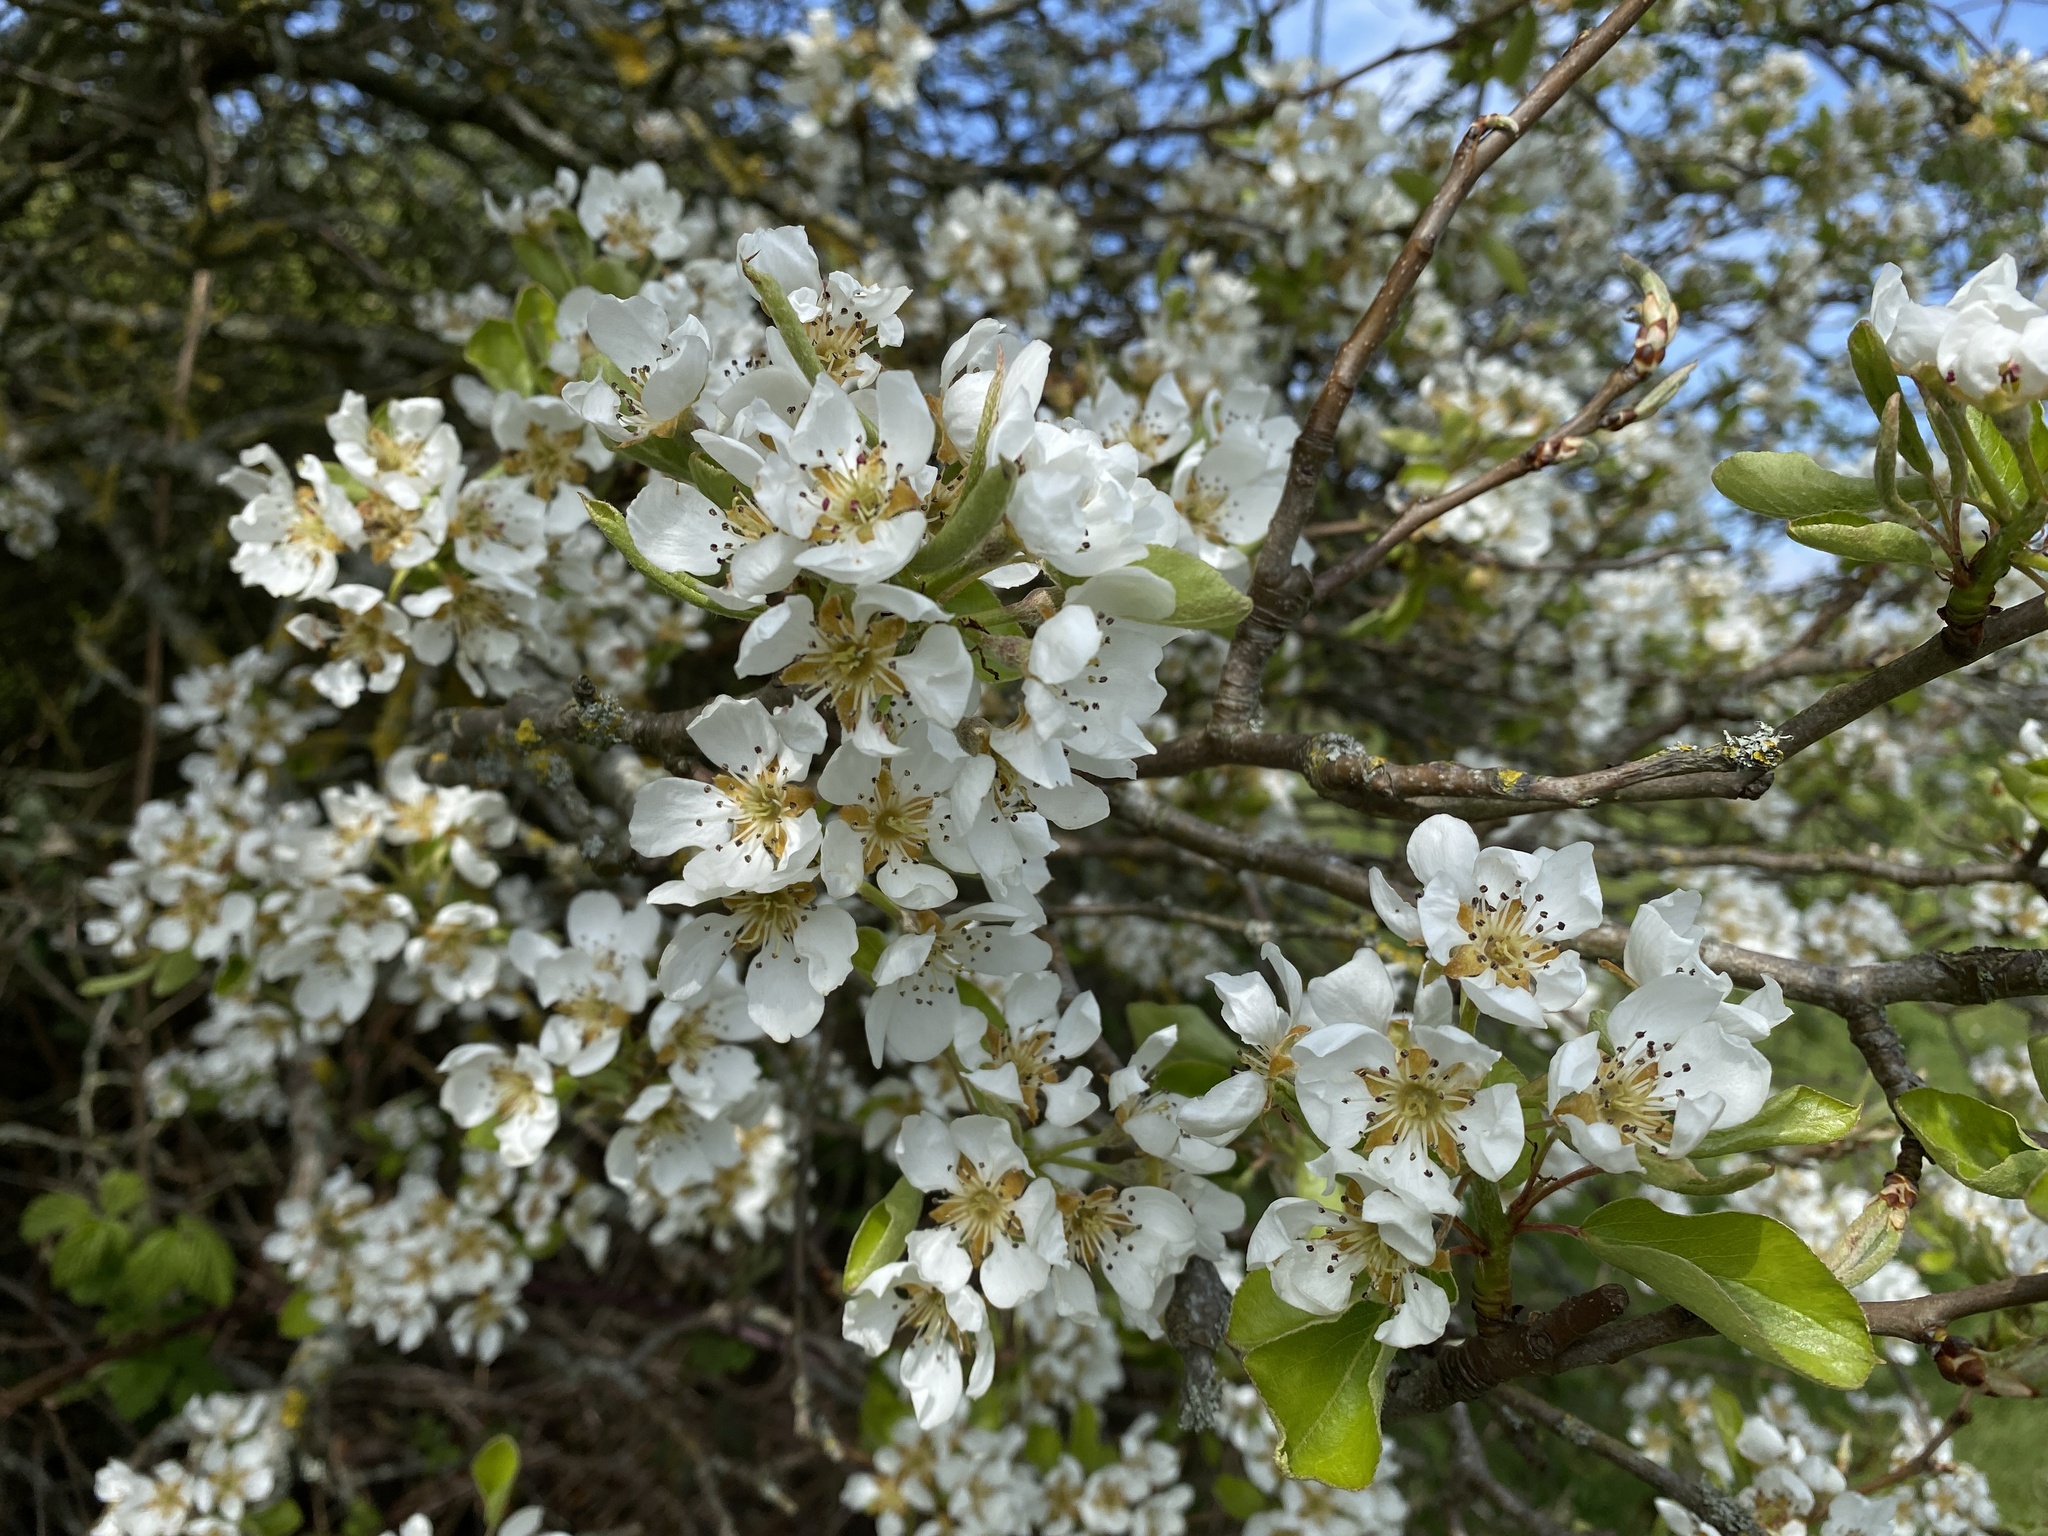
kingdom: Plantae
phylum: Tracheophyta
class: Magnoliopsida
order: Rosales
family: Rosaceae
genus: Pyrus
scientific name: Pyrus communis
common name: Pear
